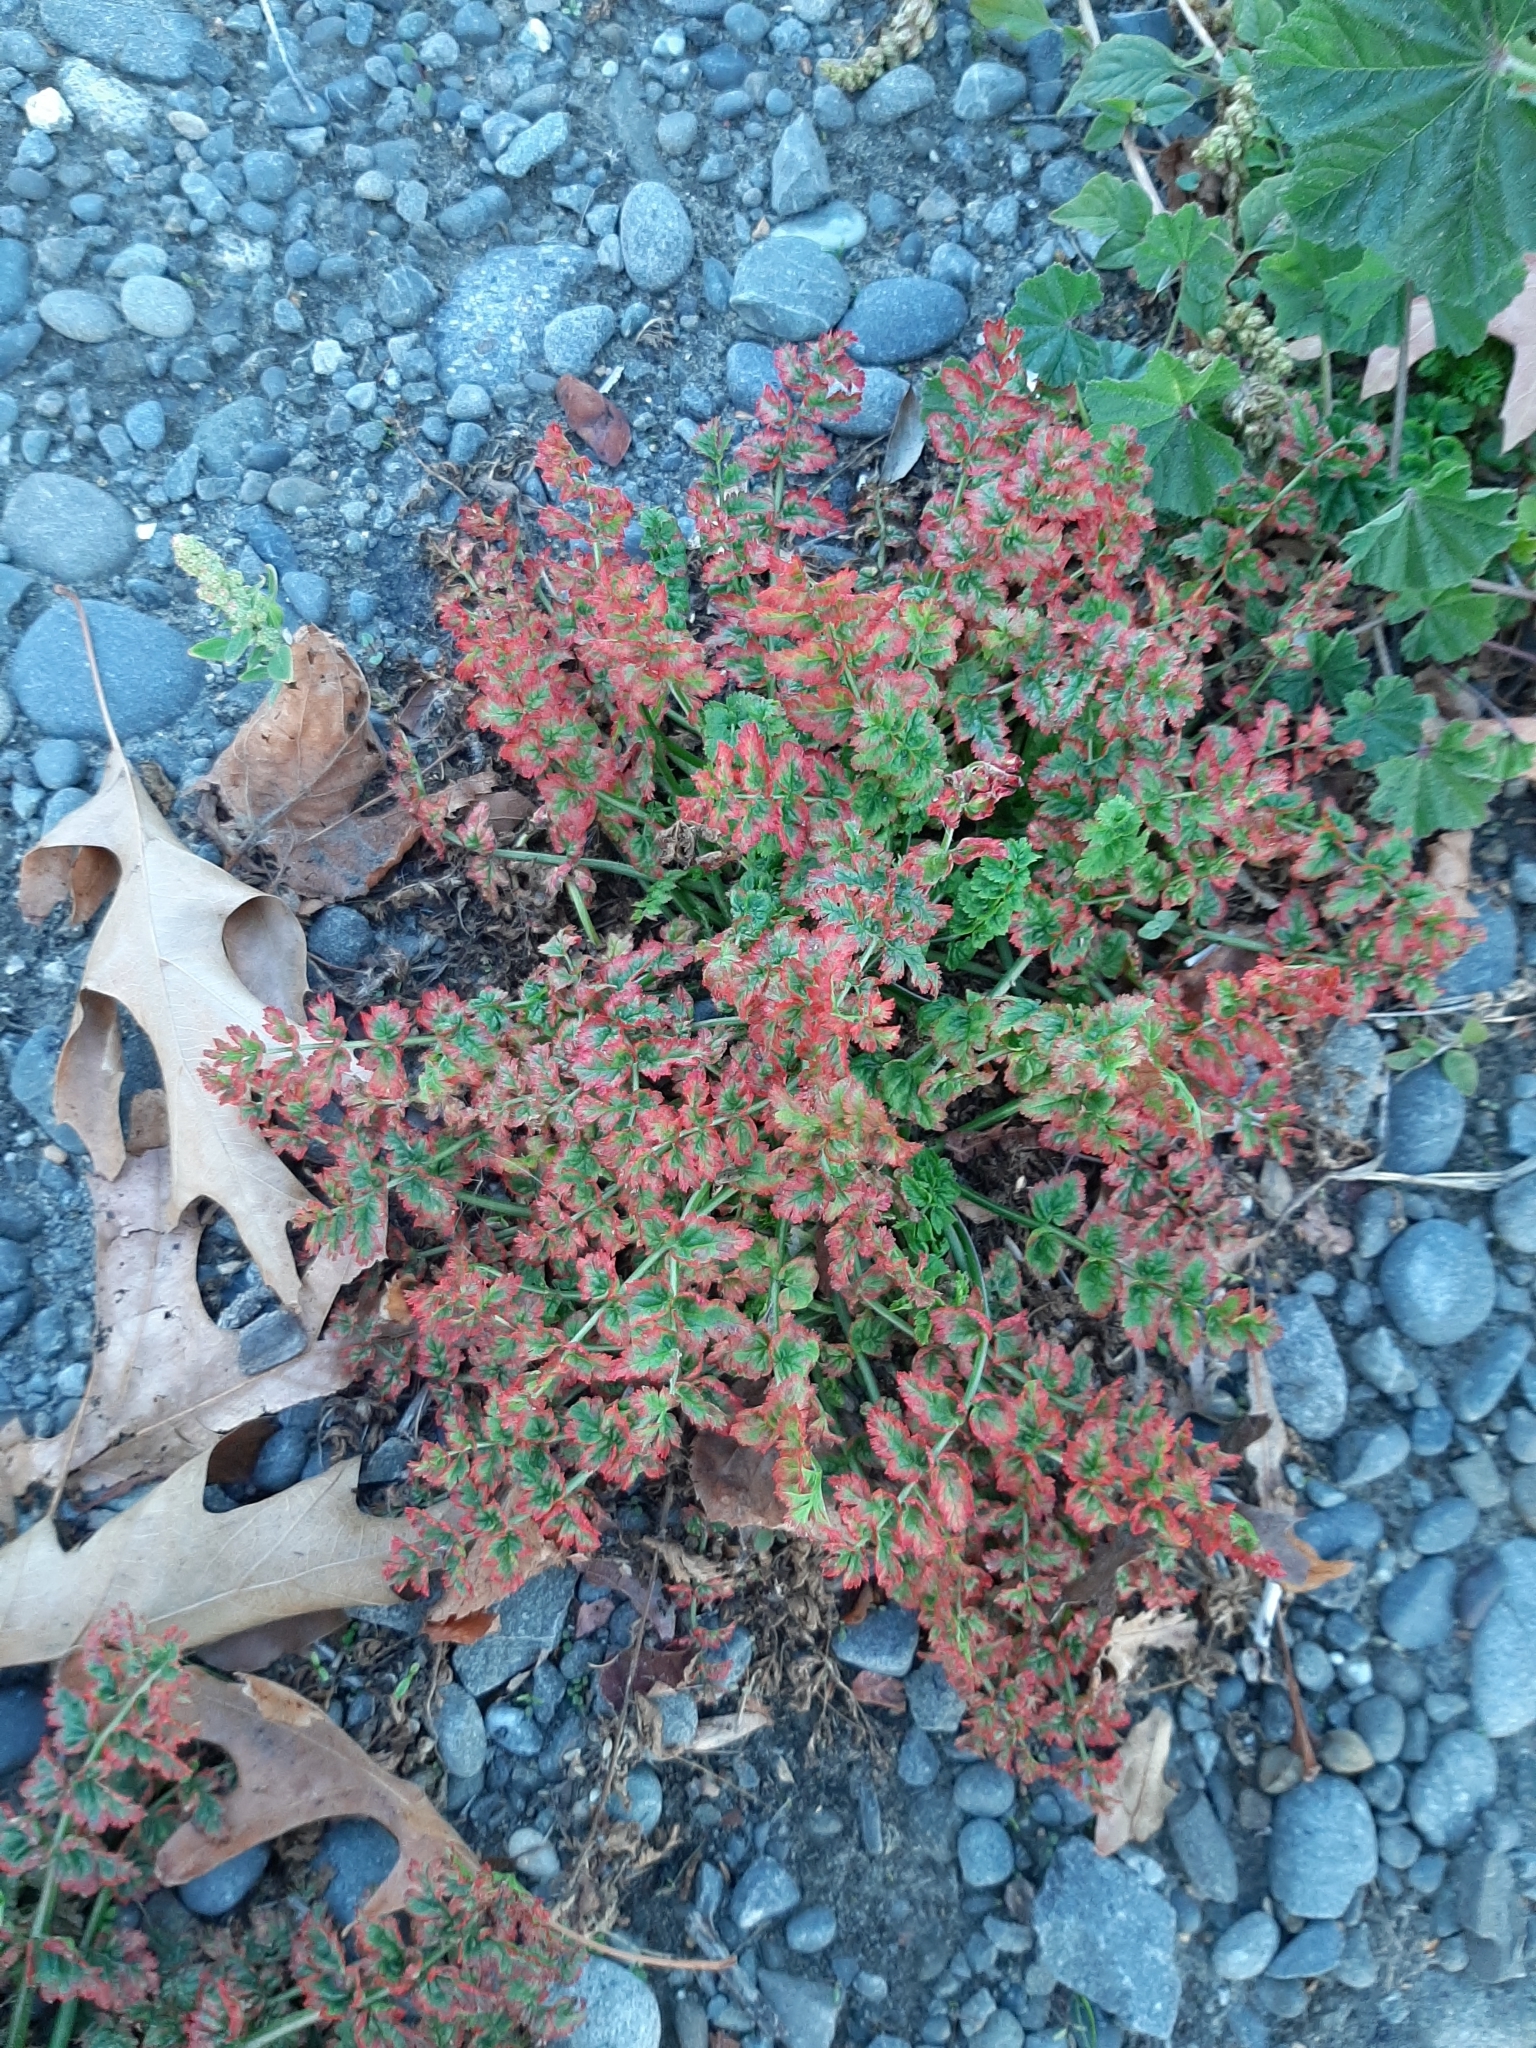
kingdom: Plantae
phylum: Tracheophyta
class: Magnoliopsida
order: Geraniales
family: Geraniaceae
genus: Erodium
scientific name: Erodium cicutarium
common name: Common stork's-bill
